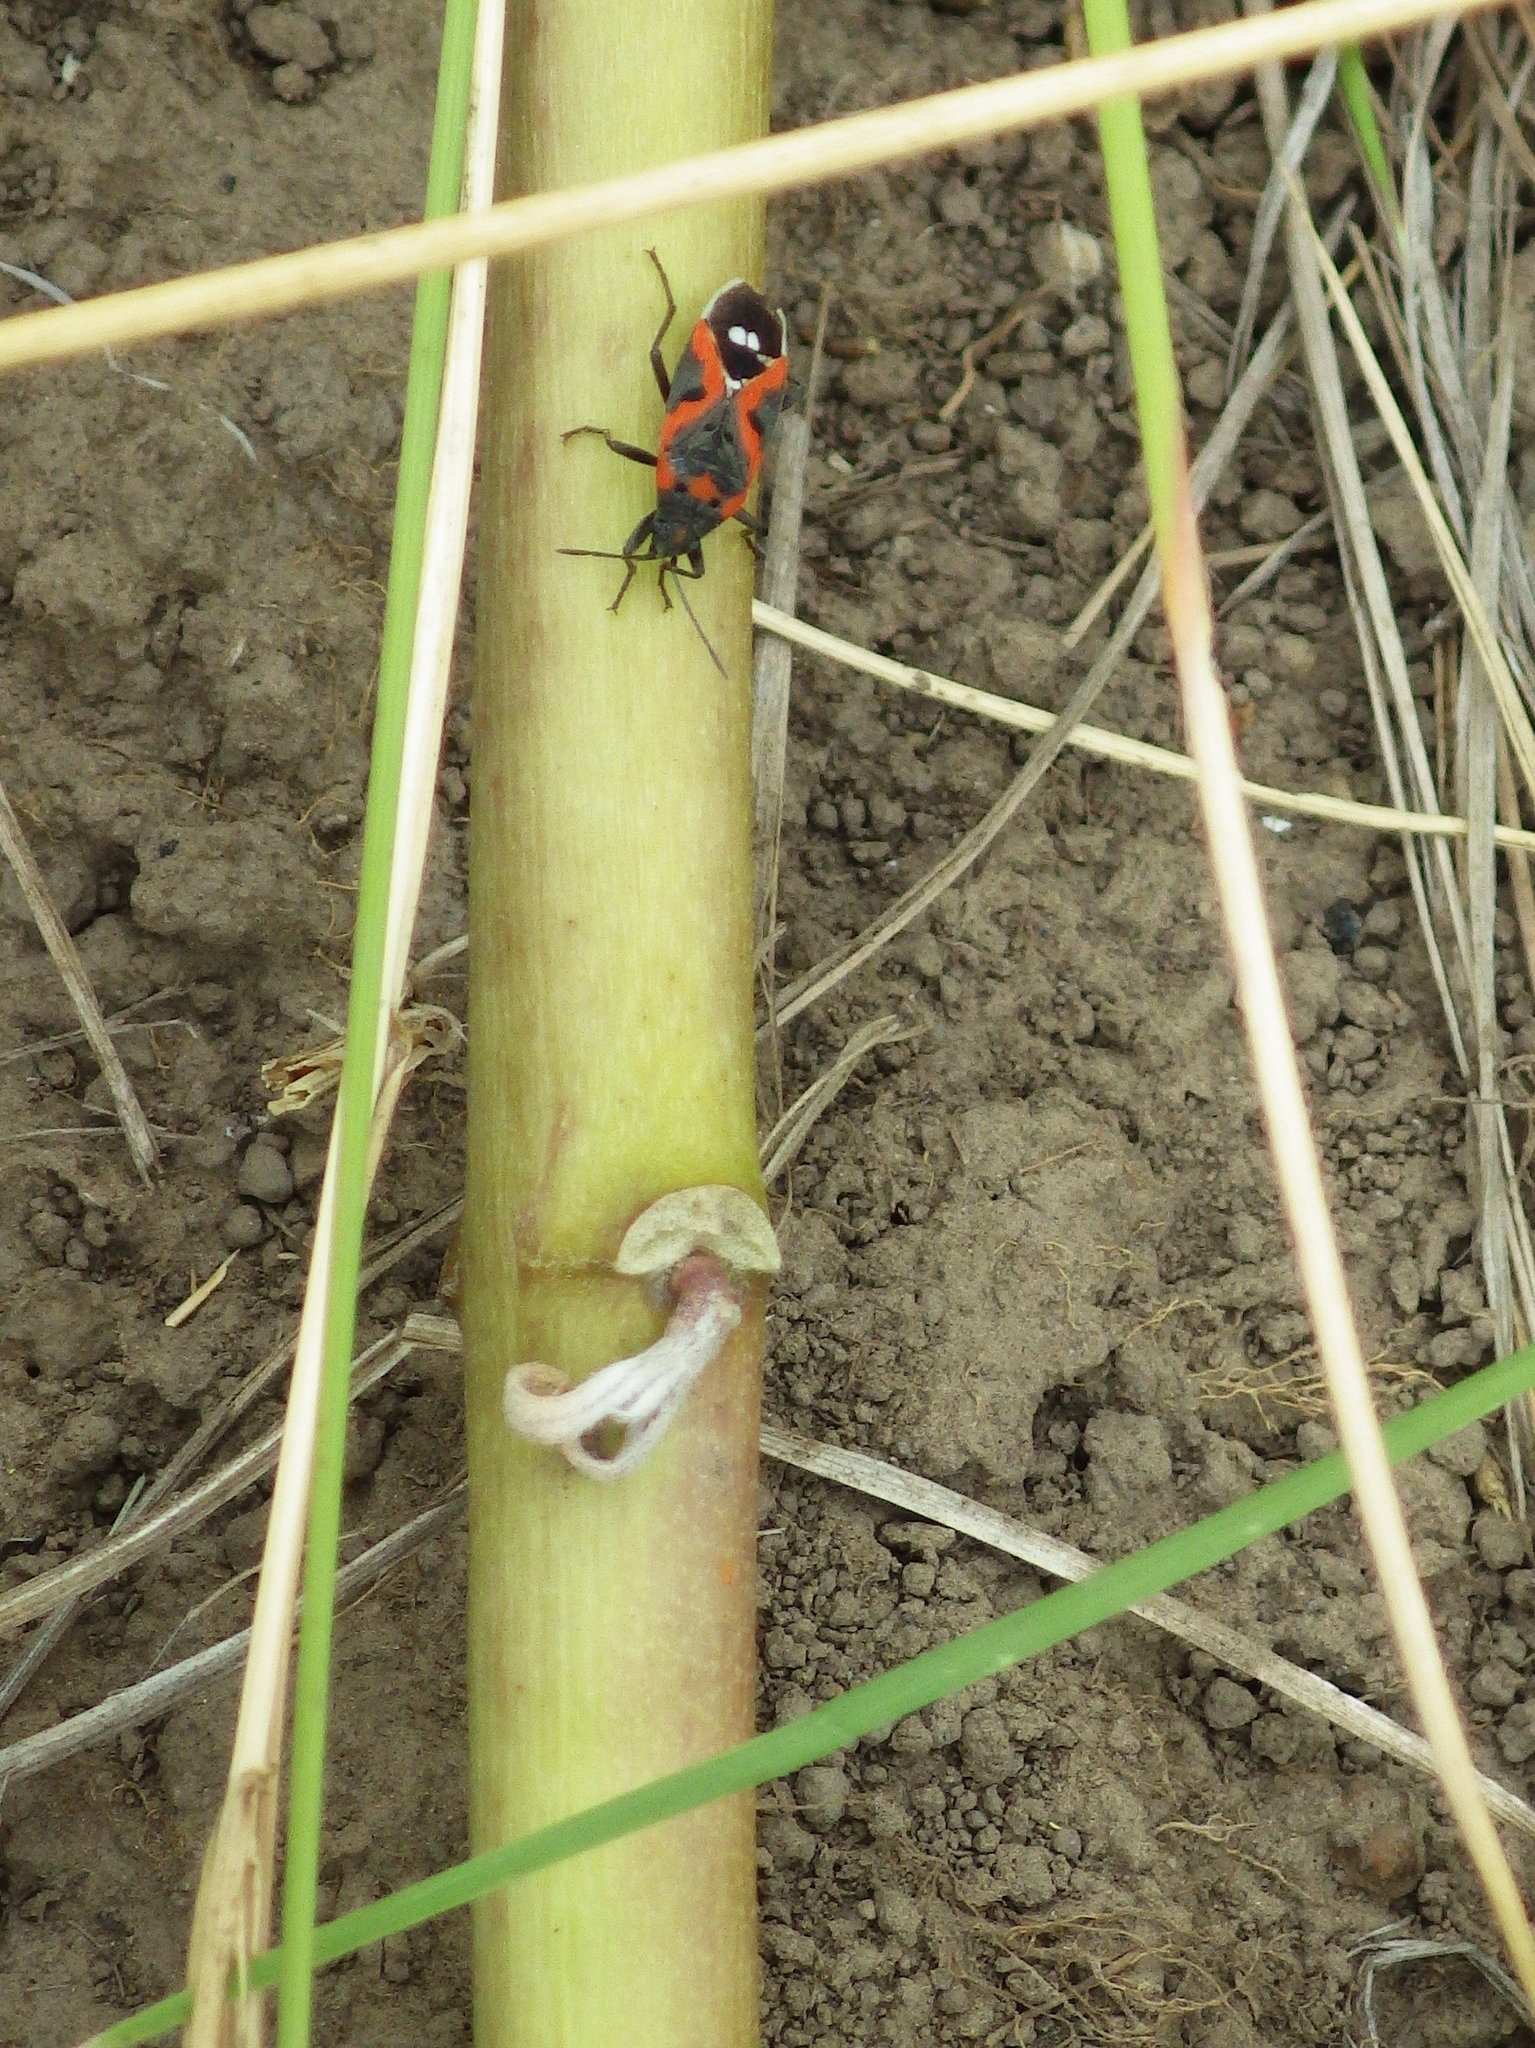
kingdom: Animalia
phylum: Arthropoda
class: Insecta
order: Hemiptera
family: Lygaeidae
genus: Lygaeus
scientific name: Lygaeus kalmii
